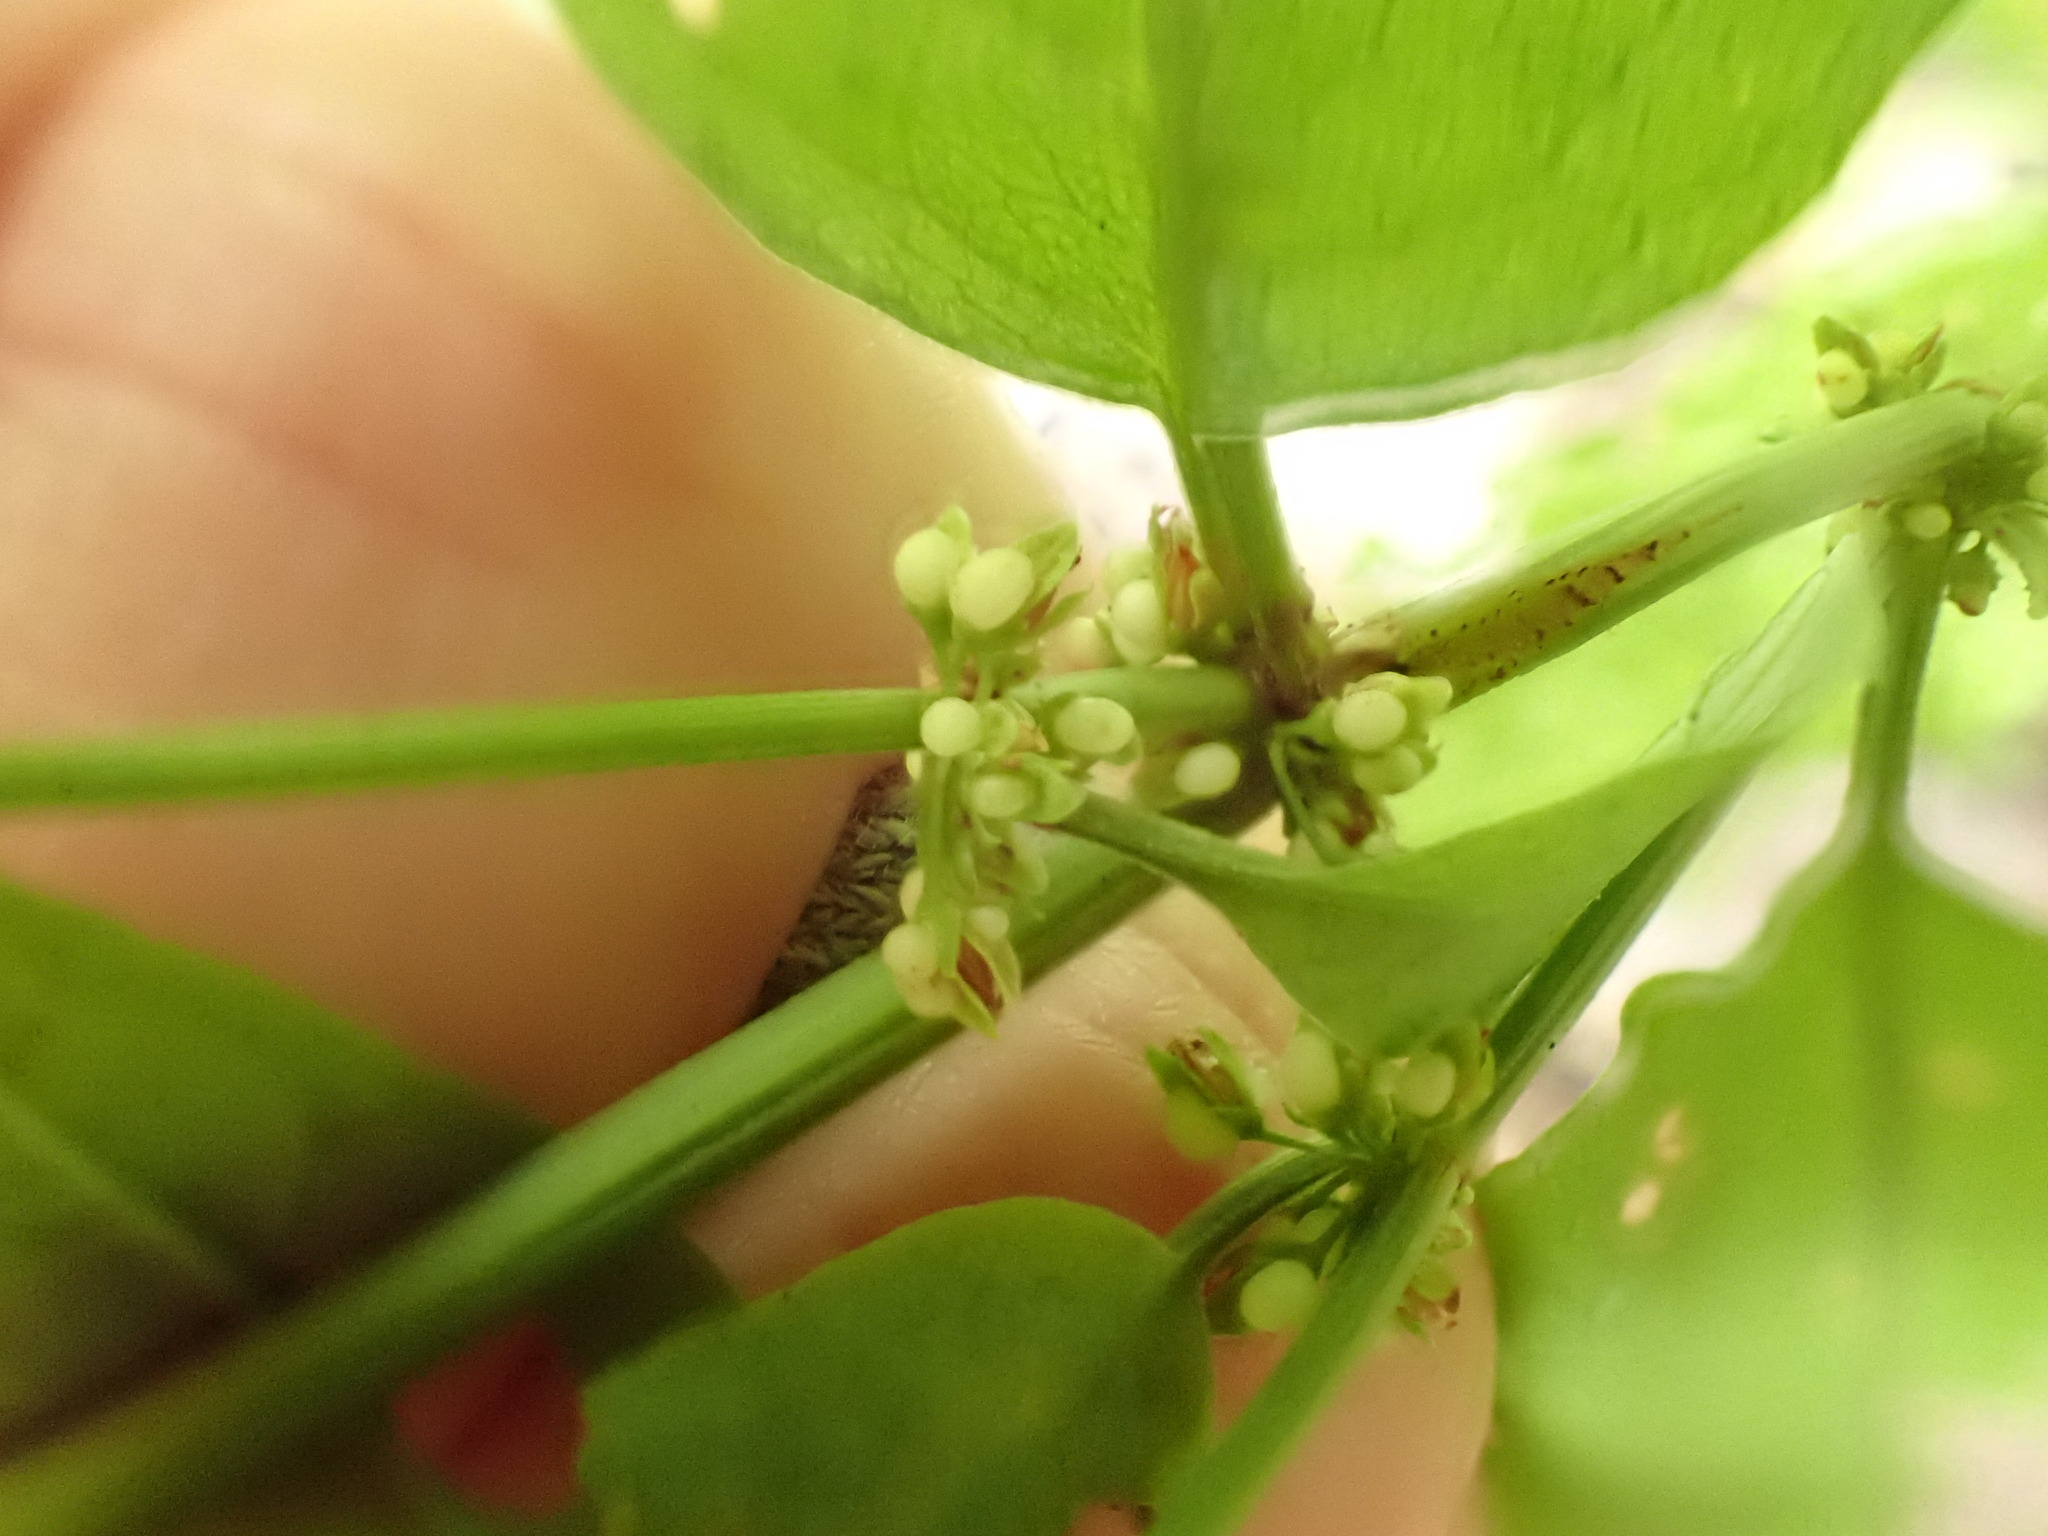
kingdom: Plantae
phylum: Tracheophyta
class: Magnoliopsida
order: Caryophyllales
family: Polygonaceae
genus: Rumex
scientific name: Rumex sanguineus
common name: Wood dock
